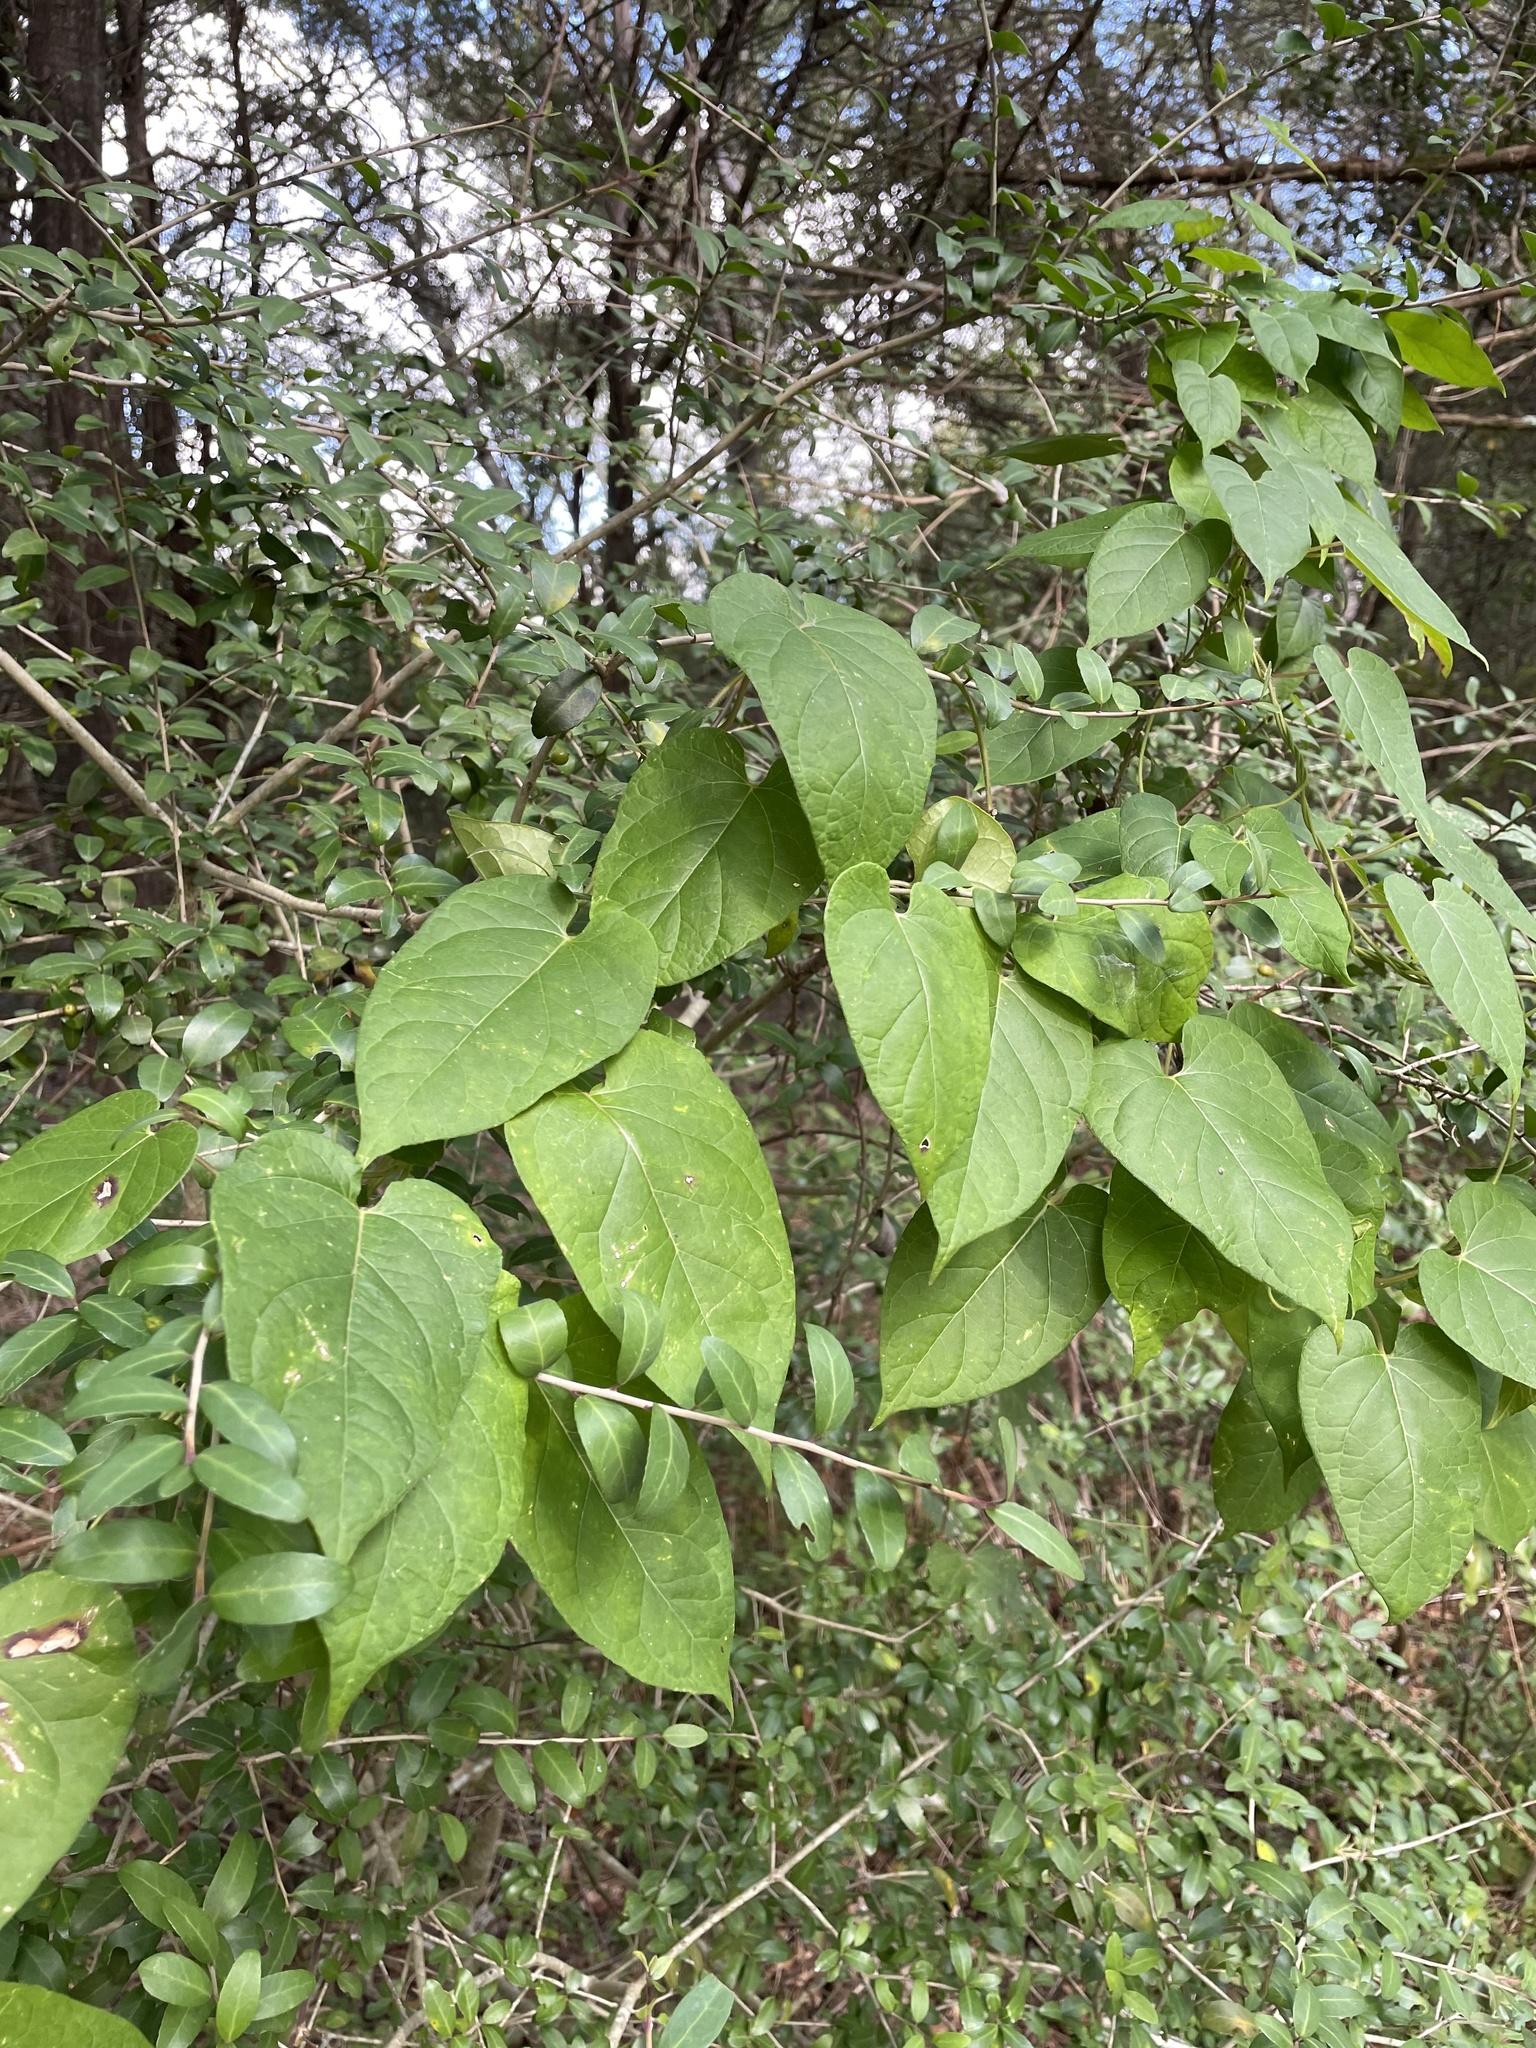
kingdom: Plantae
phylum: Tracheophyta
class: Magnoliopsida
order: Gentianales
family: Apocynaceae
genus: Gonolobus
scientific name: Gonolobus suberosus
